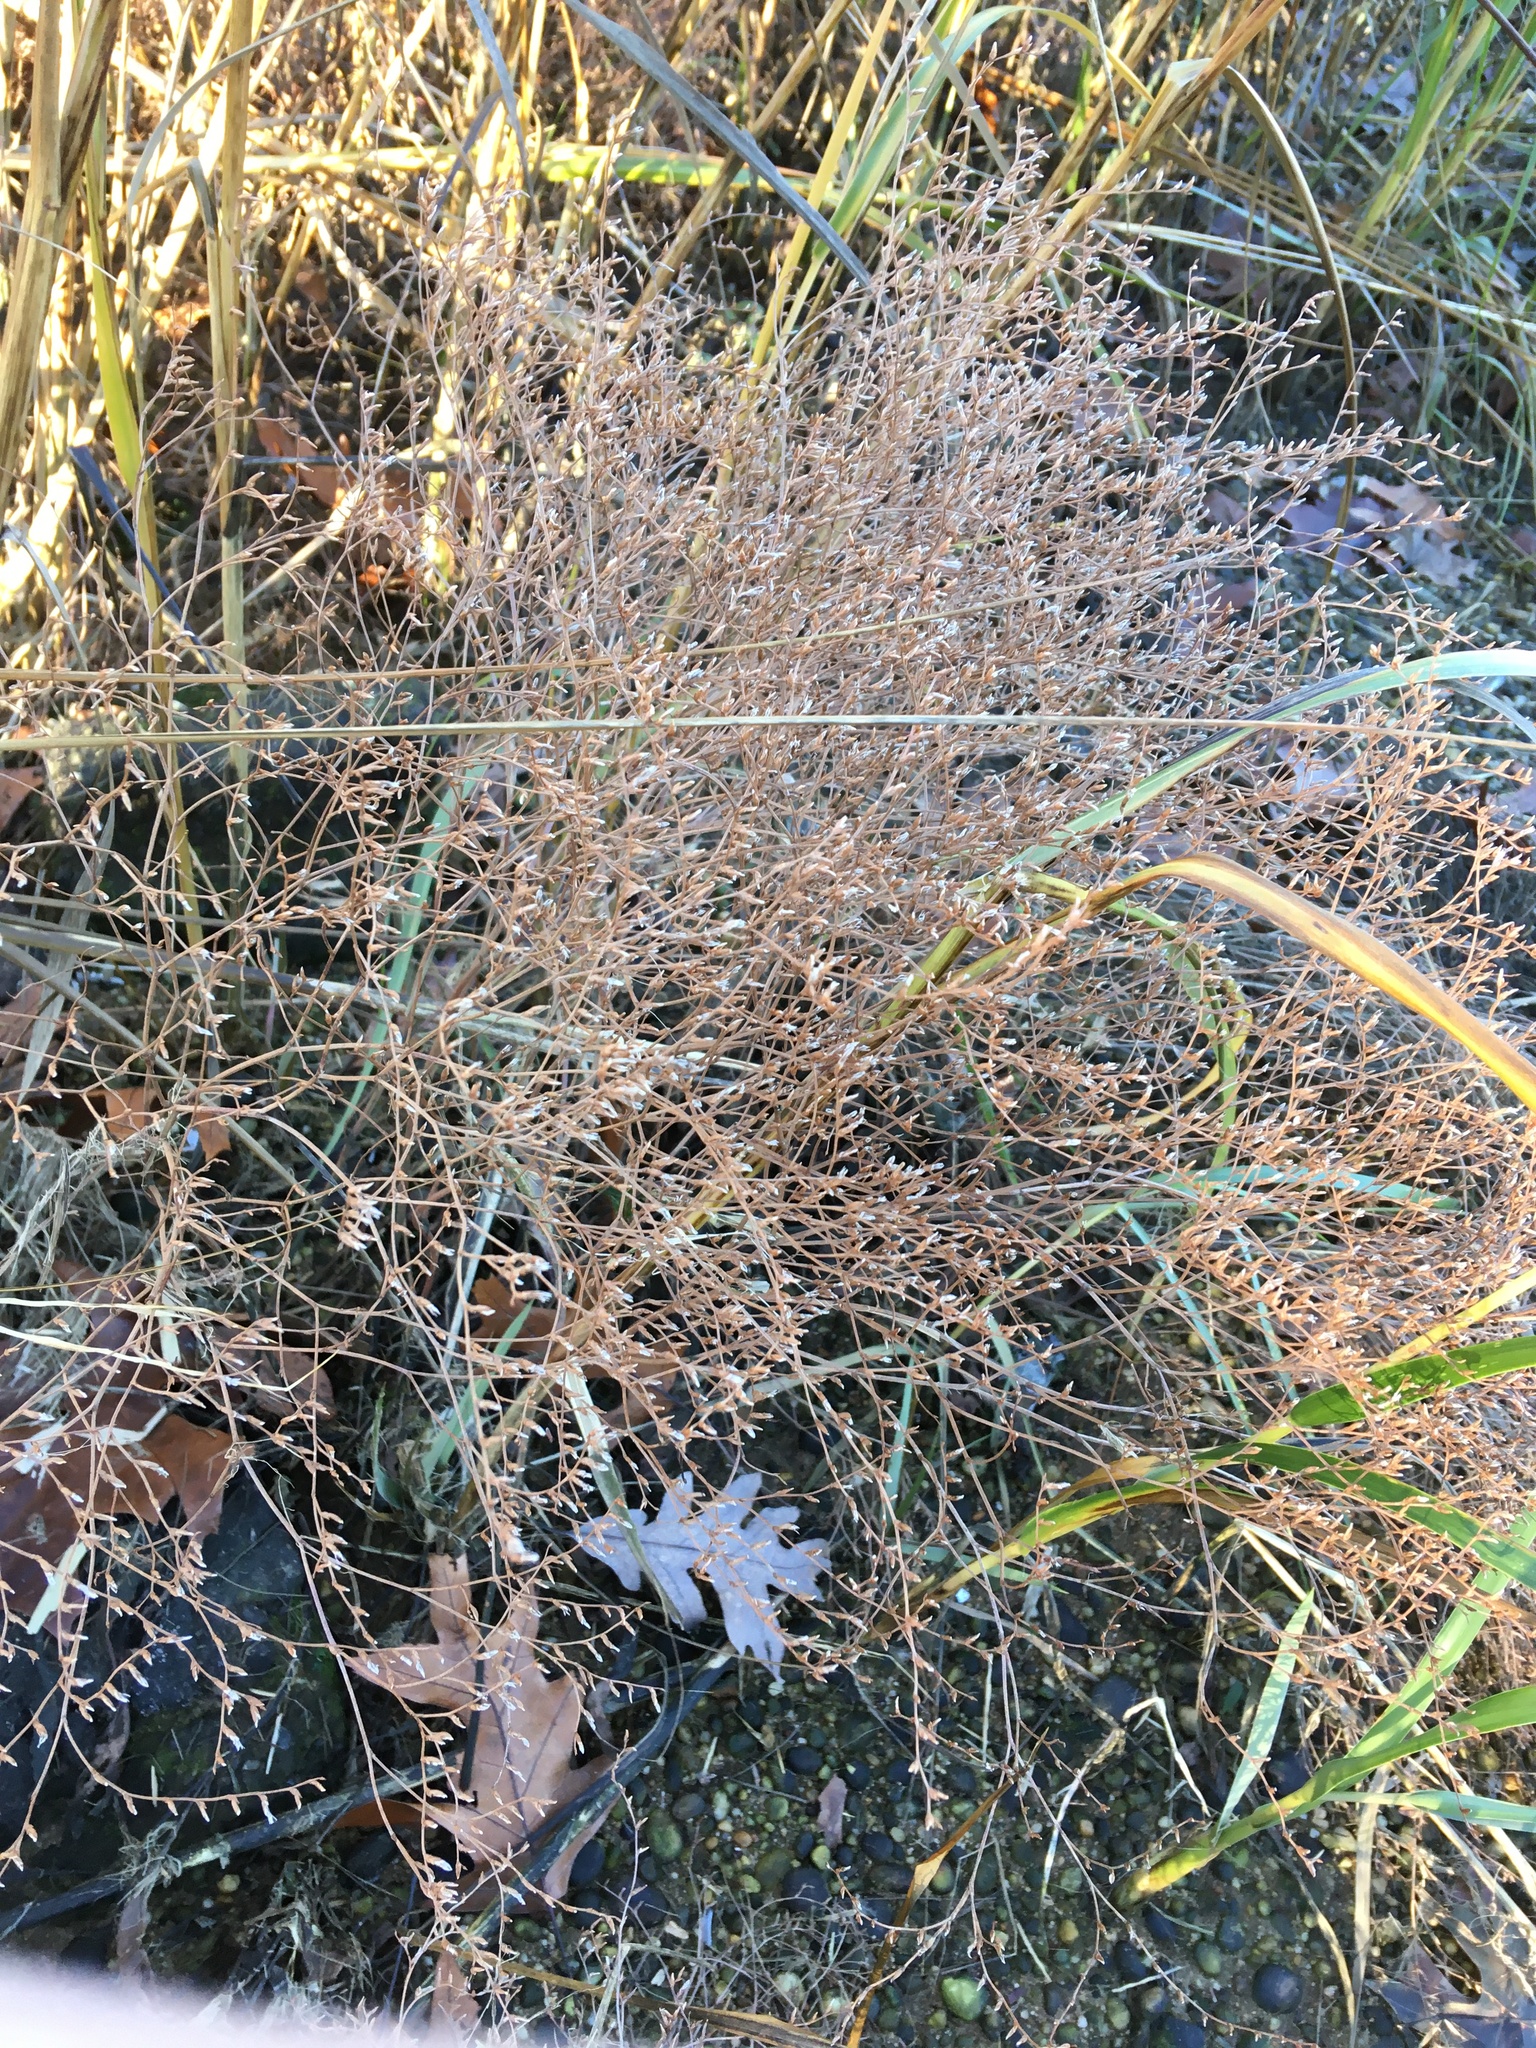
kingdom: Plantae
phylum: Tracheophyta
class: Magnoliopsida
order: Caryophyllales
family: Plumbaginaceae
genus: Limonium
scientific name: Limonium carolinianum
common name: Carolina sea lavender
